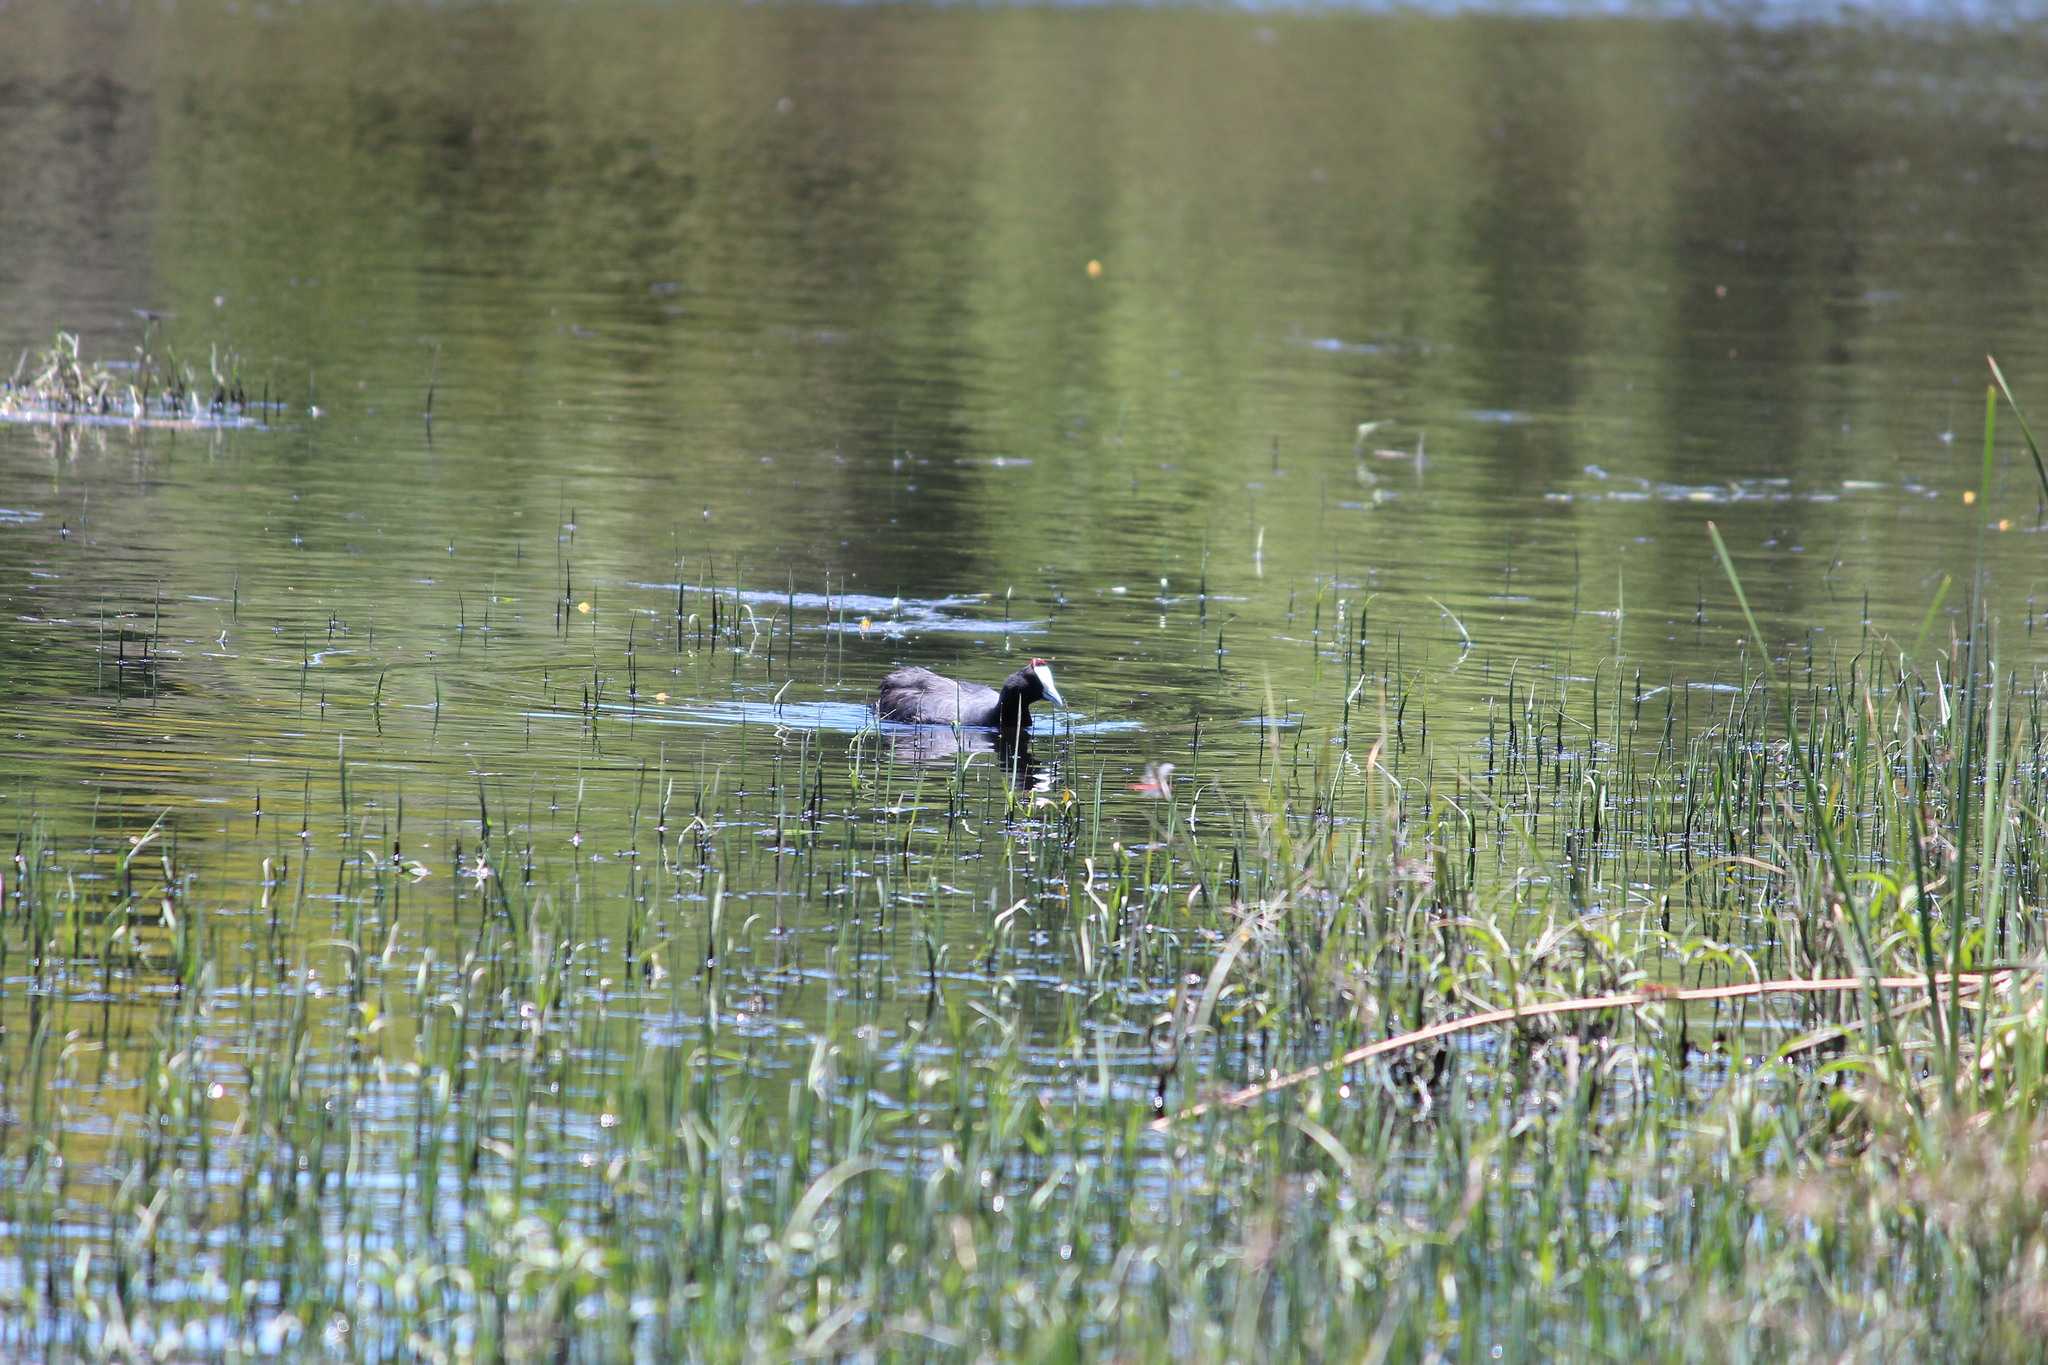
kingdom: Animalia
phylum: Chordata
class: Aves
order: Gruiformes
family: Rallidae
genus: Fulica
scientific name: Fulica cristata
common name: Red-knobbed coot
